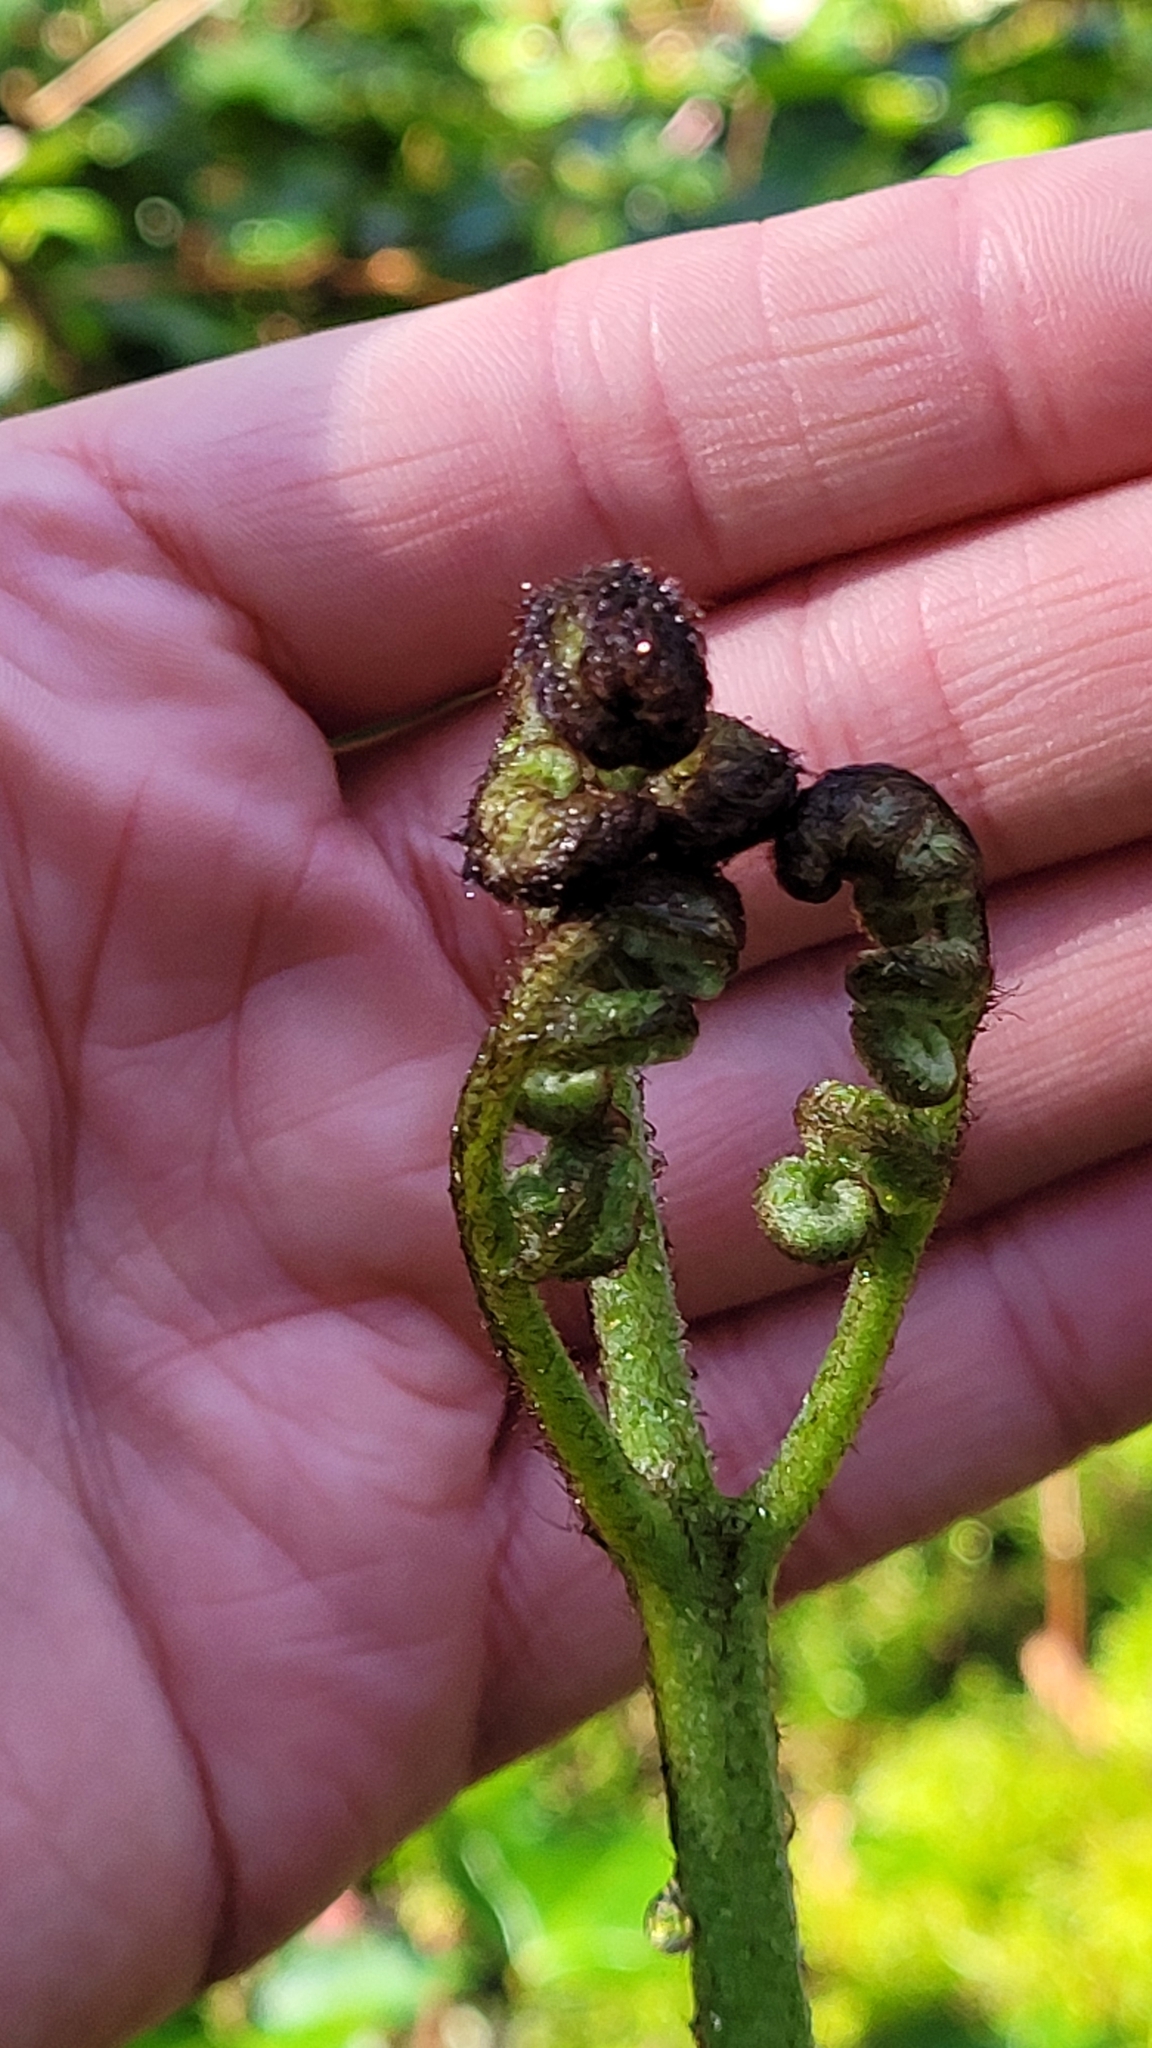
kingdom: Plantae
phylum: Tracheophyta
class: Polypodiopsida
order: Polypodiales
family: Dennstaedtiaceae
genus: Pteridium
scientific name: Pteridium aquilinum
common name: Bracken
